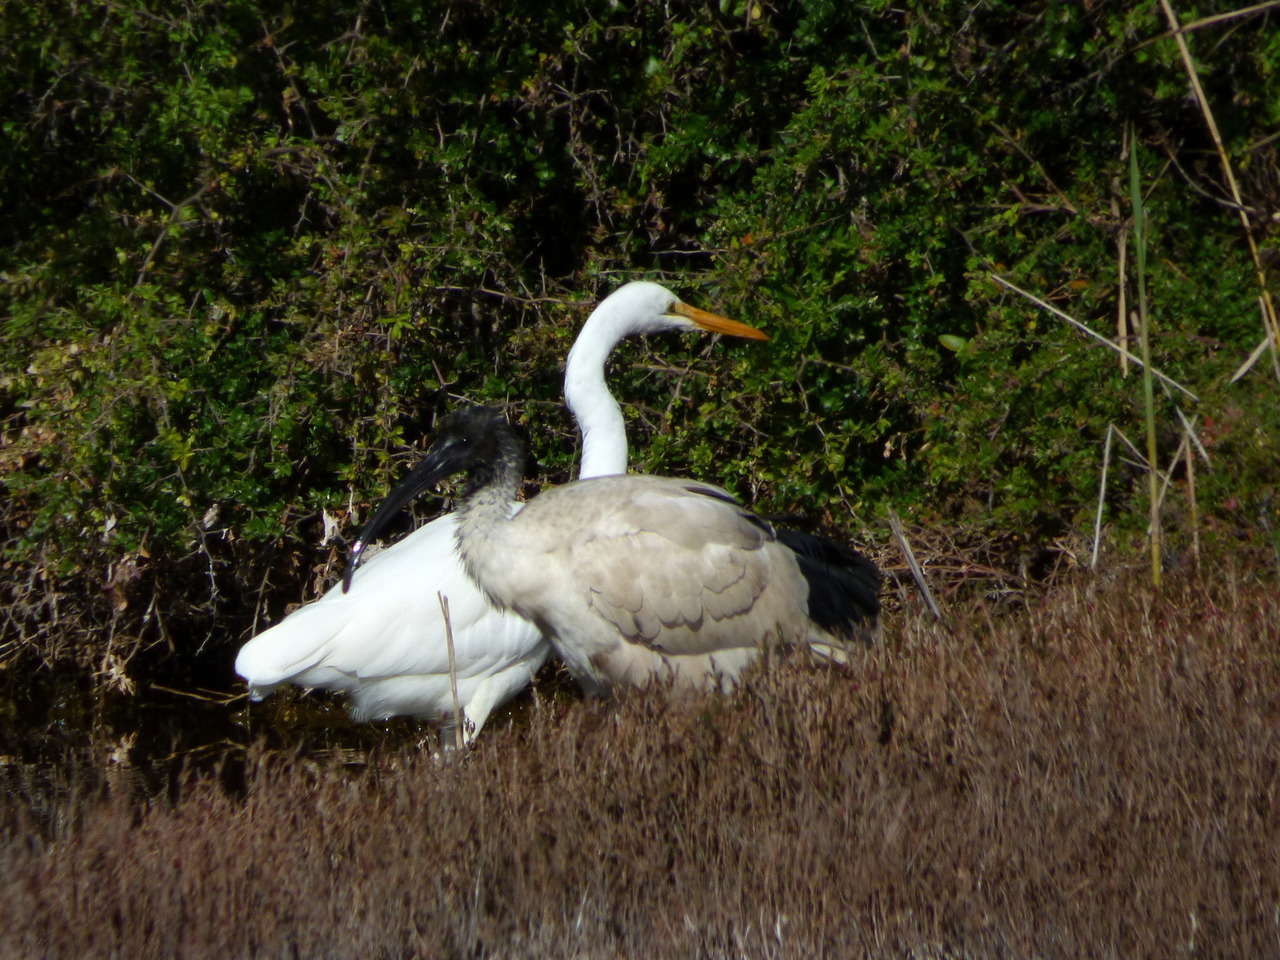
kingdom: Animalia
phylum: Chordata
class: Aves
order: Pelecaniformes
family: Ardeidae
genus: Ardea
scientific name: Ardea modesta
